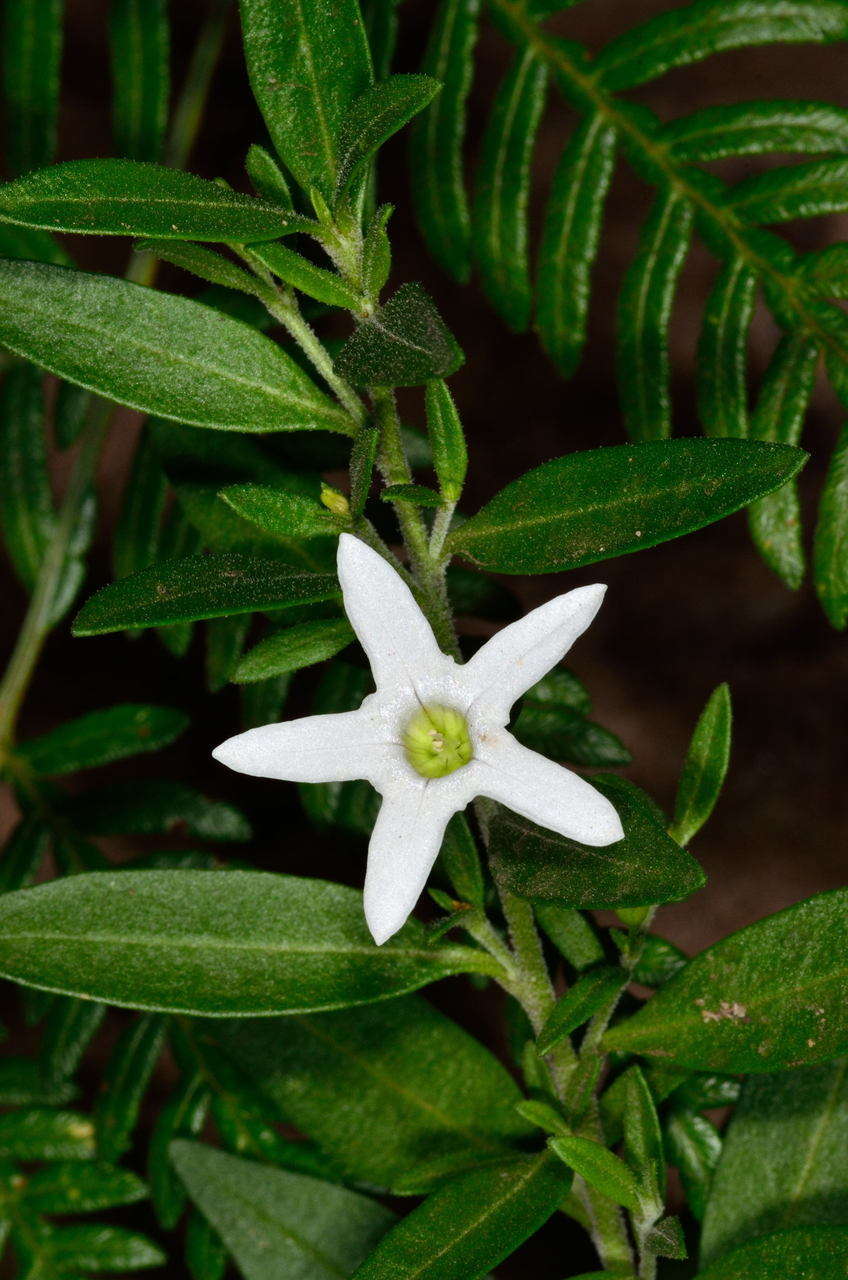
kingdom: Plantae
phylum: Tracheophyta
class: Magnoliopsida
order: Solanales
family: Solanaceae
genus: Cyphanthera
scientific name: Cyphanthera anthocercidea
